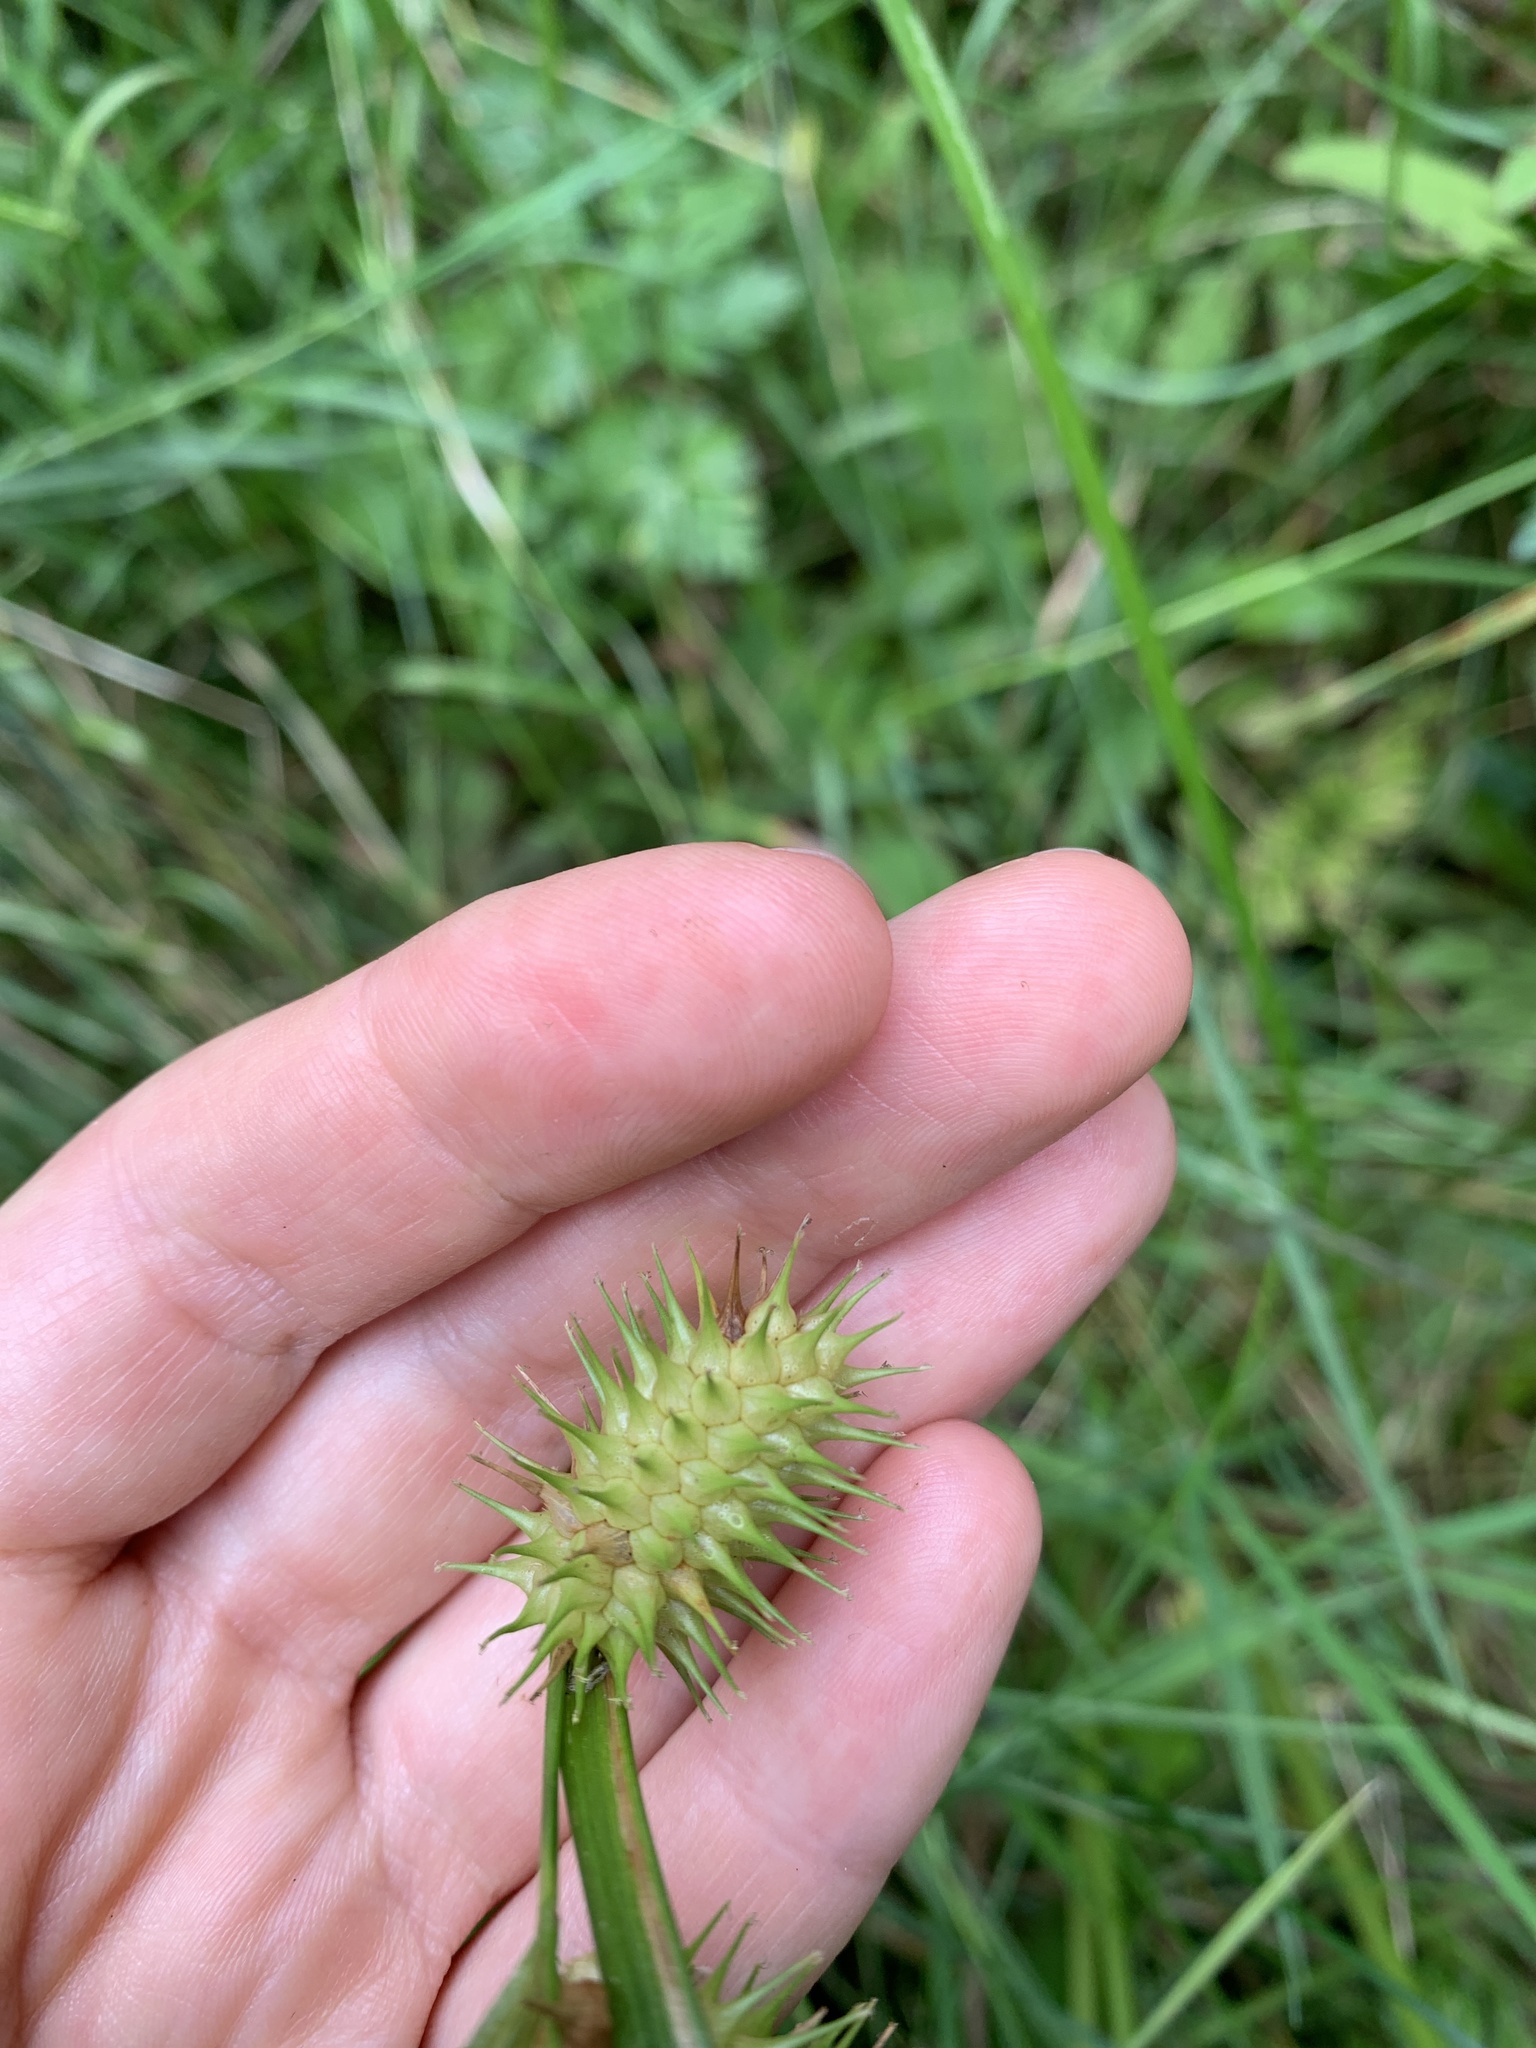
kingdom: Plantae
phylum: Tracheophyta
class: Liliopsida
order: Poales
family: Cyperaceae
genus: Carex
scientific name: Carex lurida
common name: Sallow sedge
